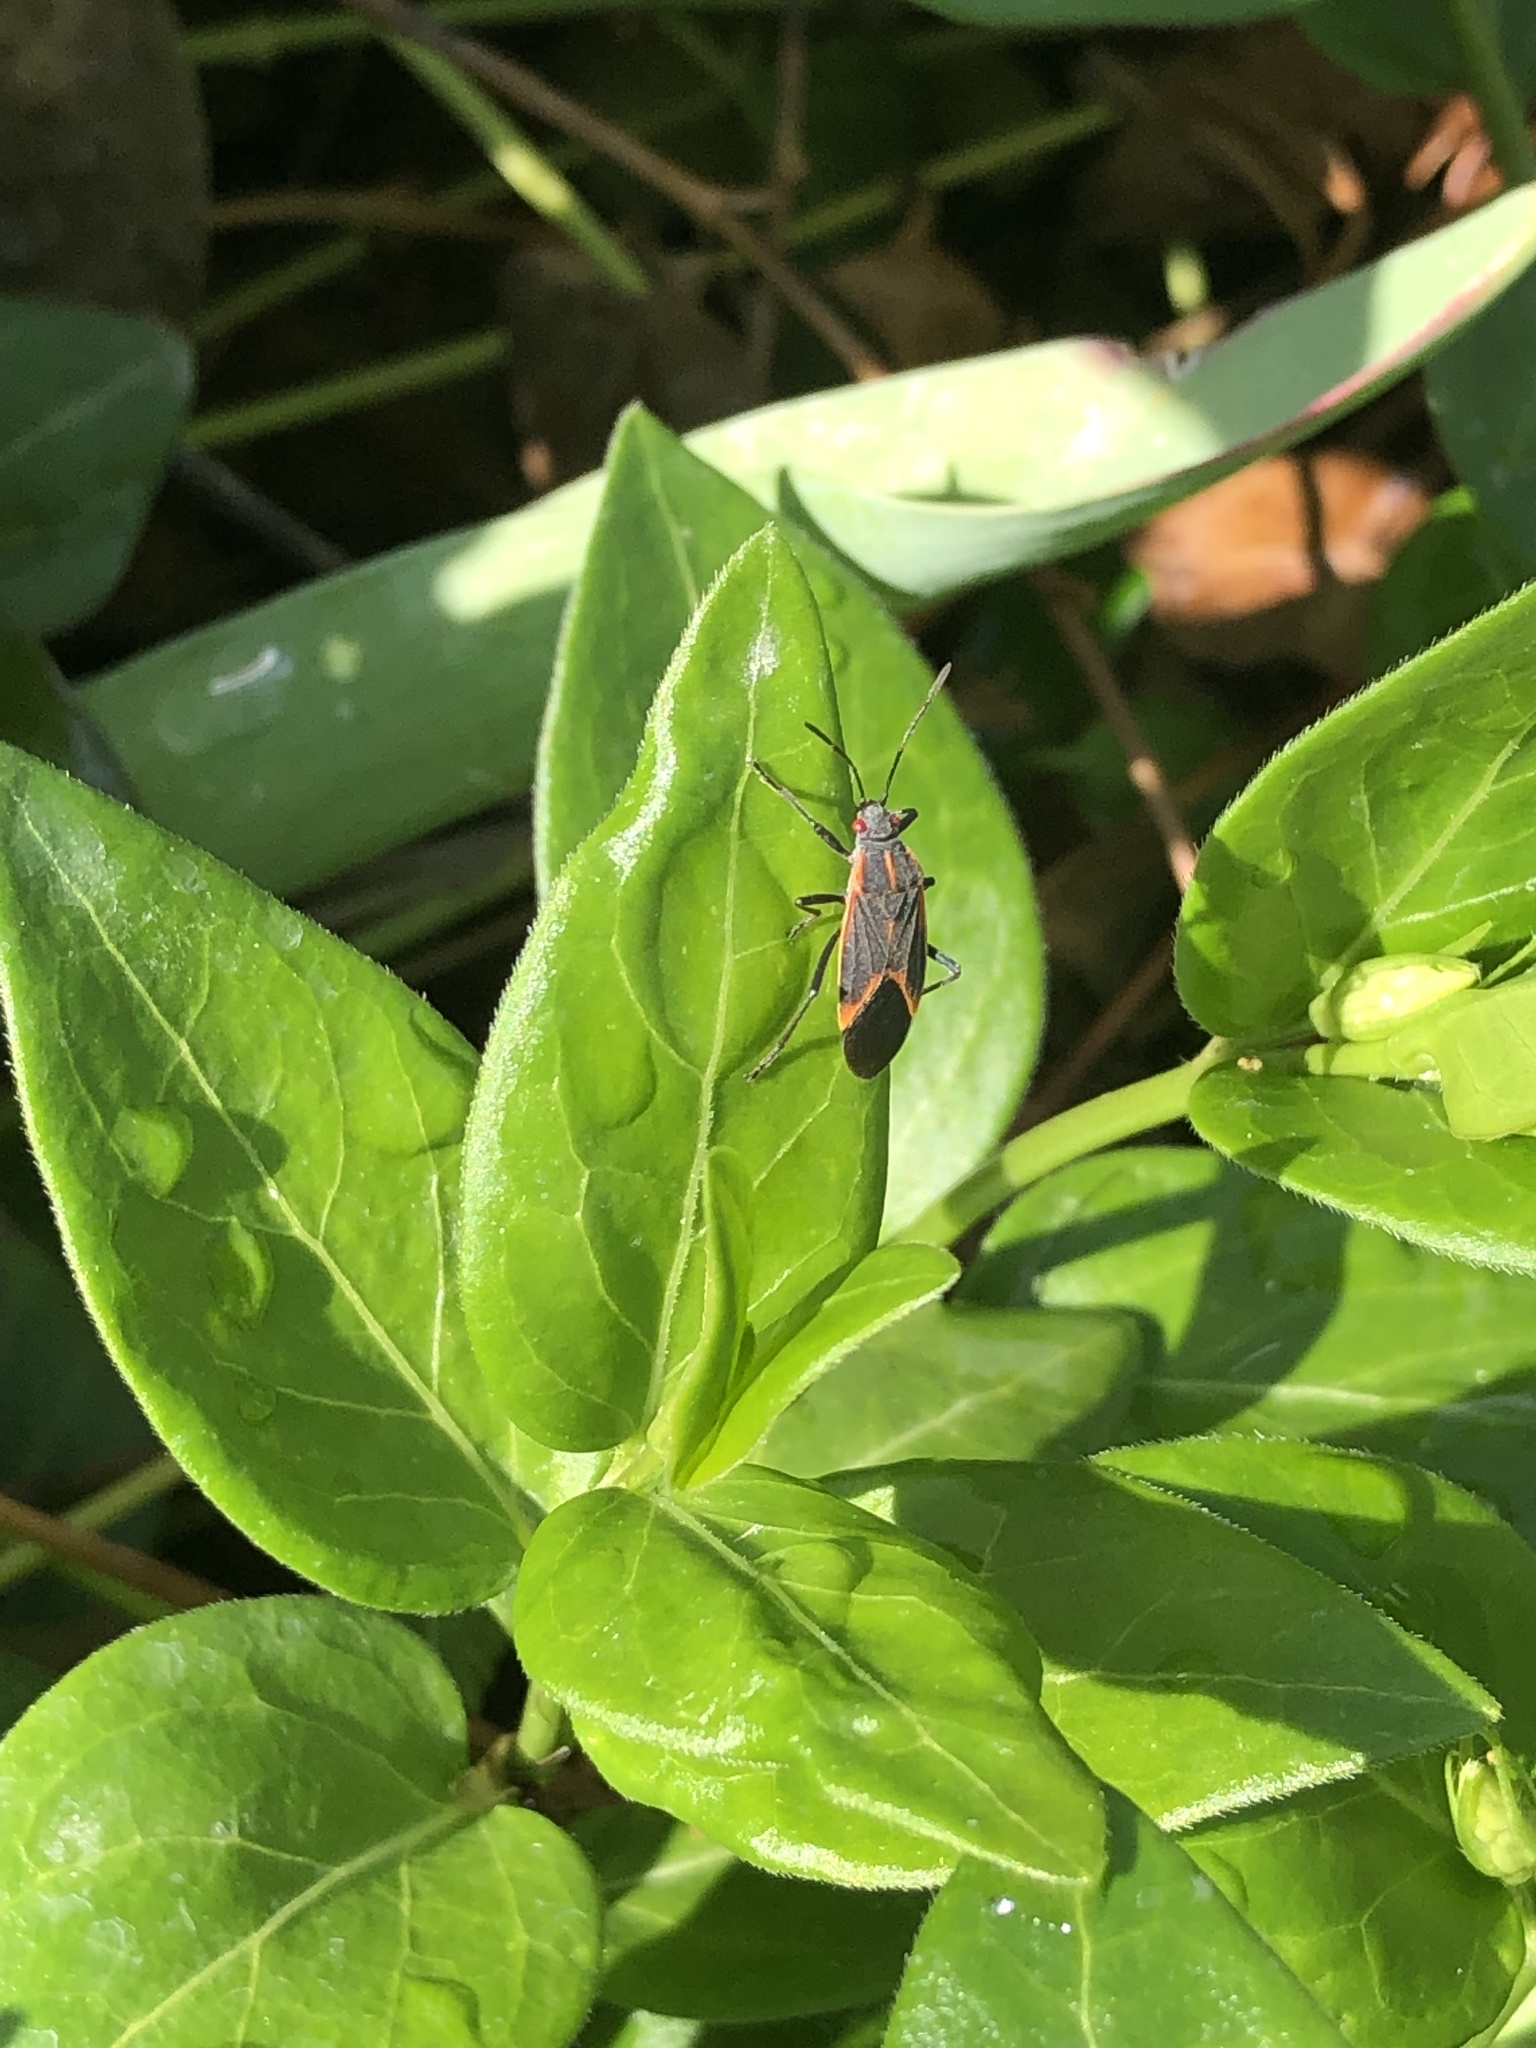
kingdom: Animalia
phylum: Arthropoda
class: Insecta
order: Hemiptera
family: Rhopalidae
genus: Boisea
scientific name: Boisea trivittata
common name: Boxelder bug
